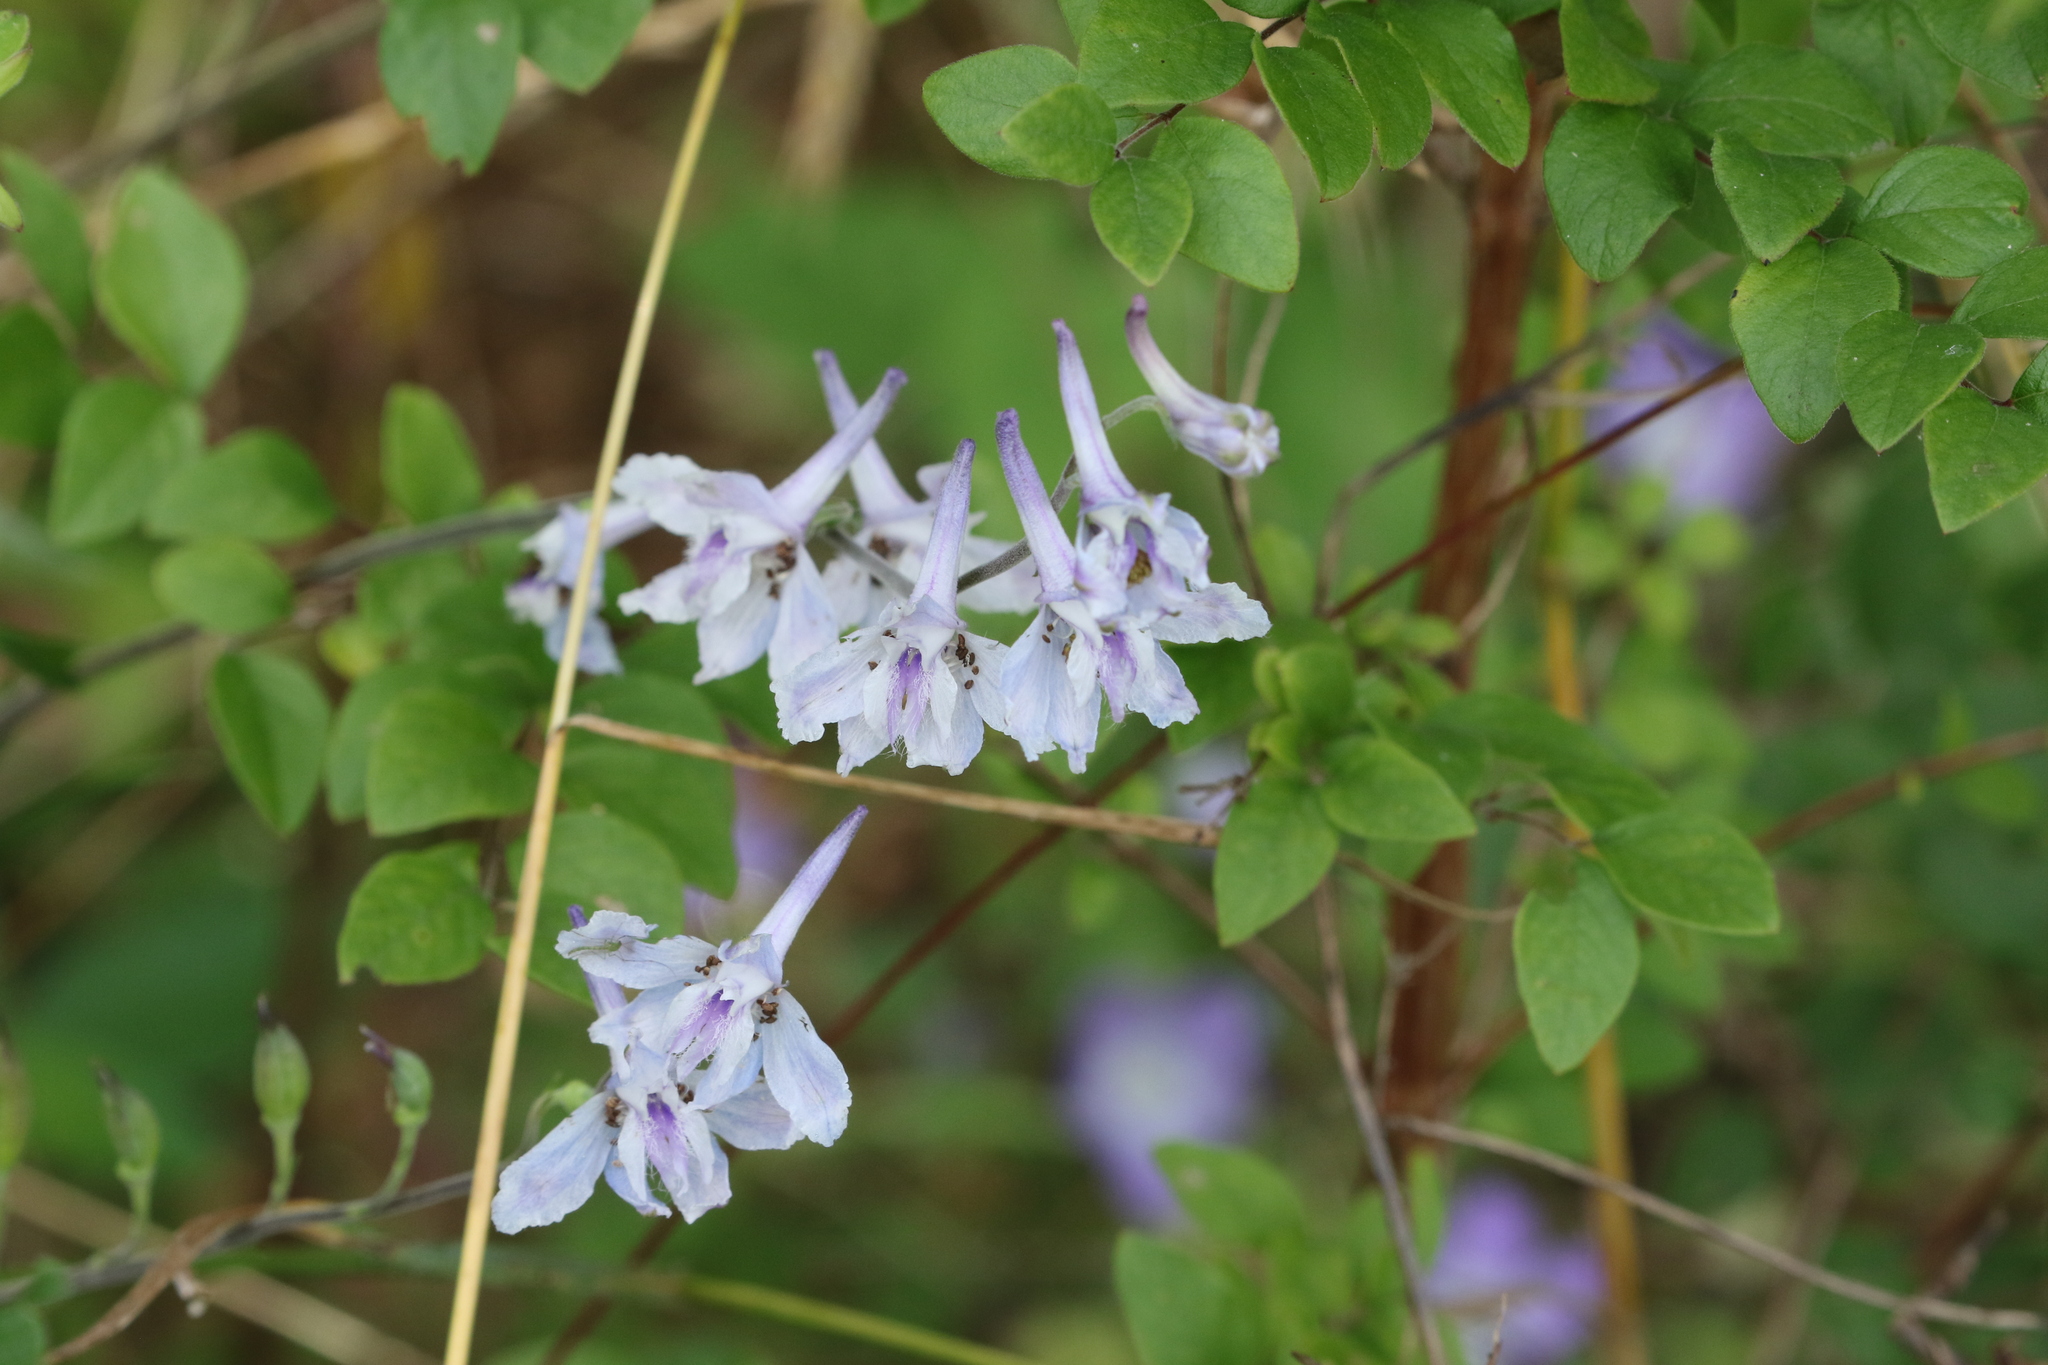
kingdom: Plantae
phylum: Tracheophyta
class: Magnoliopsida
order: Ranunculales
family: Ranunculaceae
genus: Delphinium
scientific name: Delphinium carolinianum
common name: Carolina larkspur
